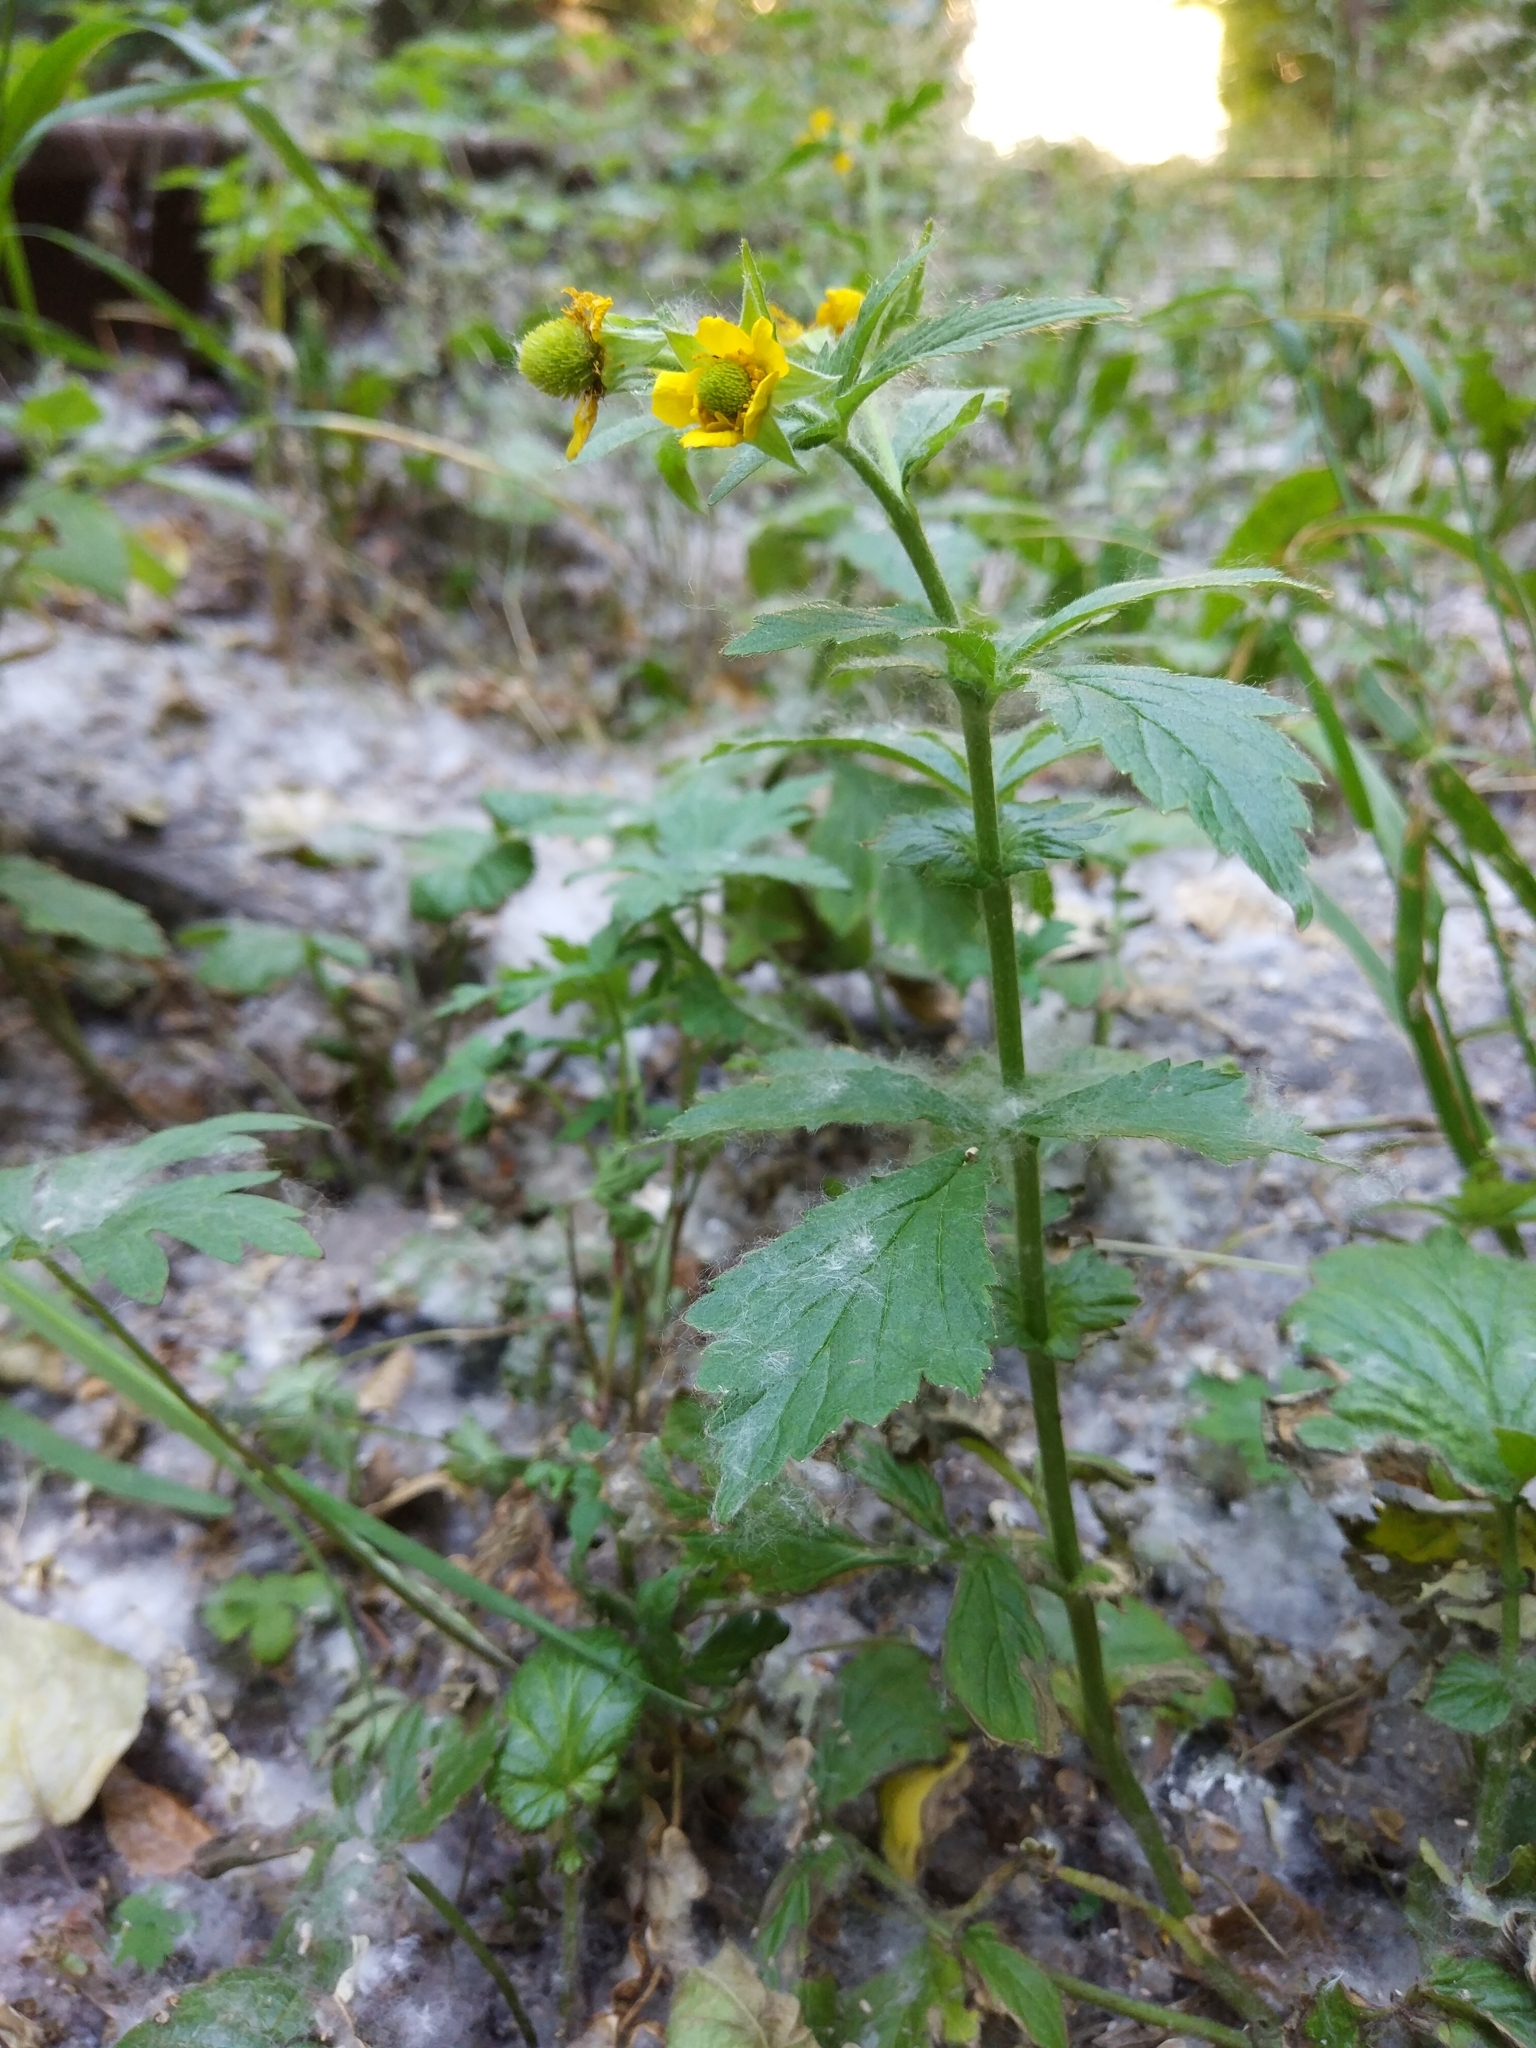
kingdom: Plantae
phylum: Tracheophyta
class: Magnoliopsida
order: Rosales
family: Rosaceae
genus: Geum
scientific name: Geum aleppicum
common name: Yellow avens
